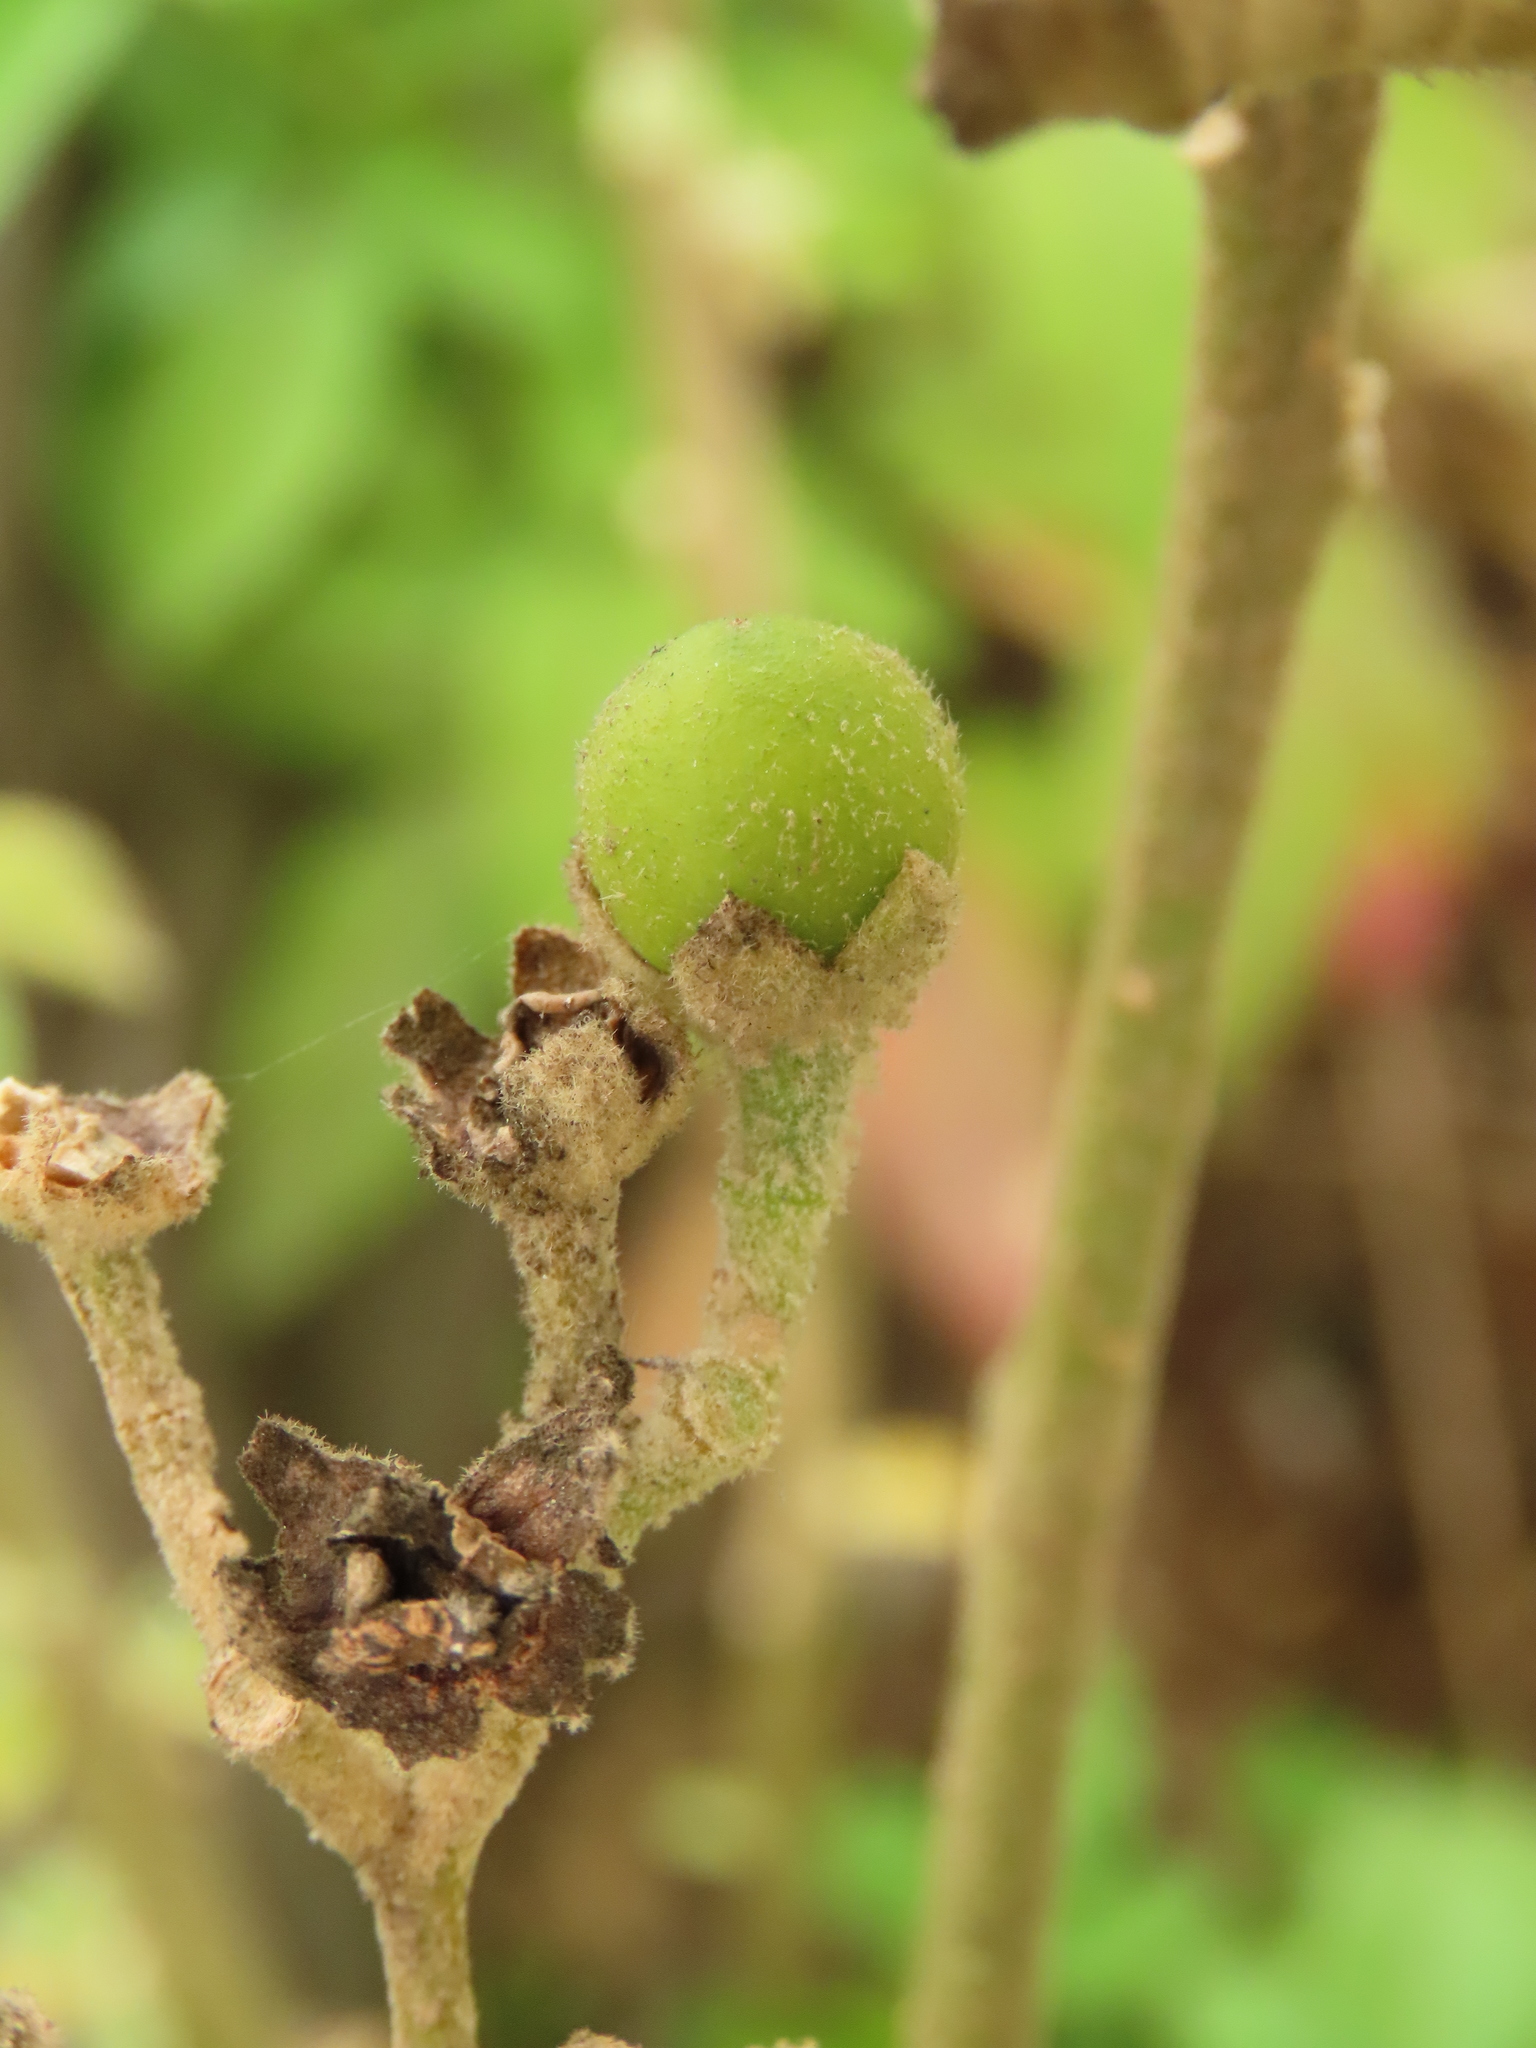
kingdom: Plantae
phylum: Tracheophyta
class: Magnoliopsida
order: Solanales
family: Solanaceae
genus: Solanum
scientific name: Solanum erianthum
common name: Tobacco-tree
